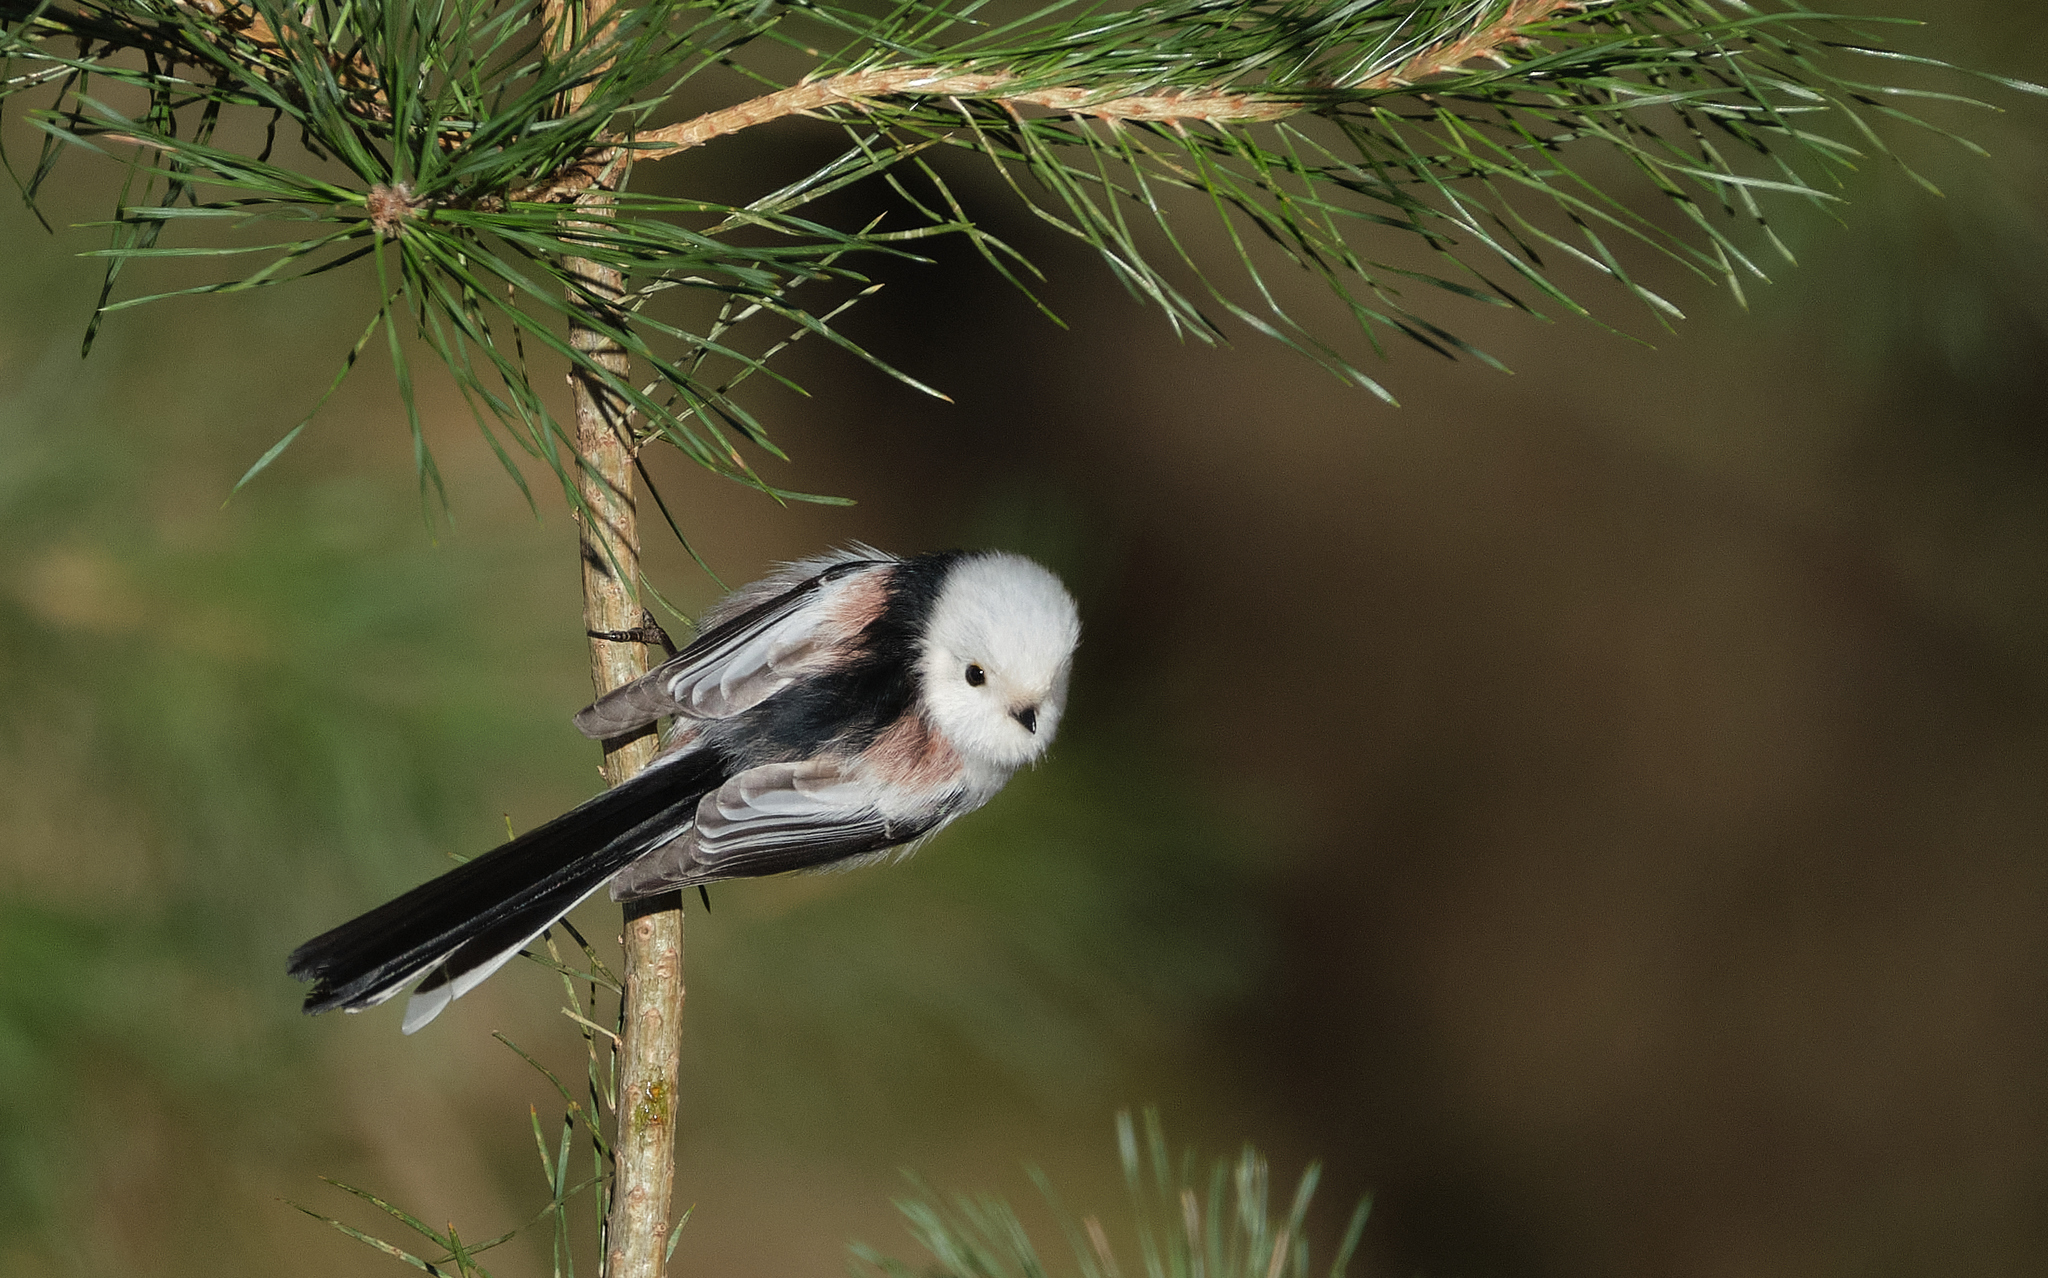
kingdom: Animalia
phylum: Chordata
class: Aves
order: Passeriformes
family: Aegithalidae
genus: Aegithalos
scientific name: Aegithalos caudatus
